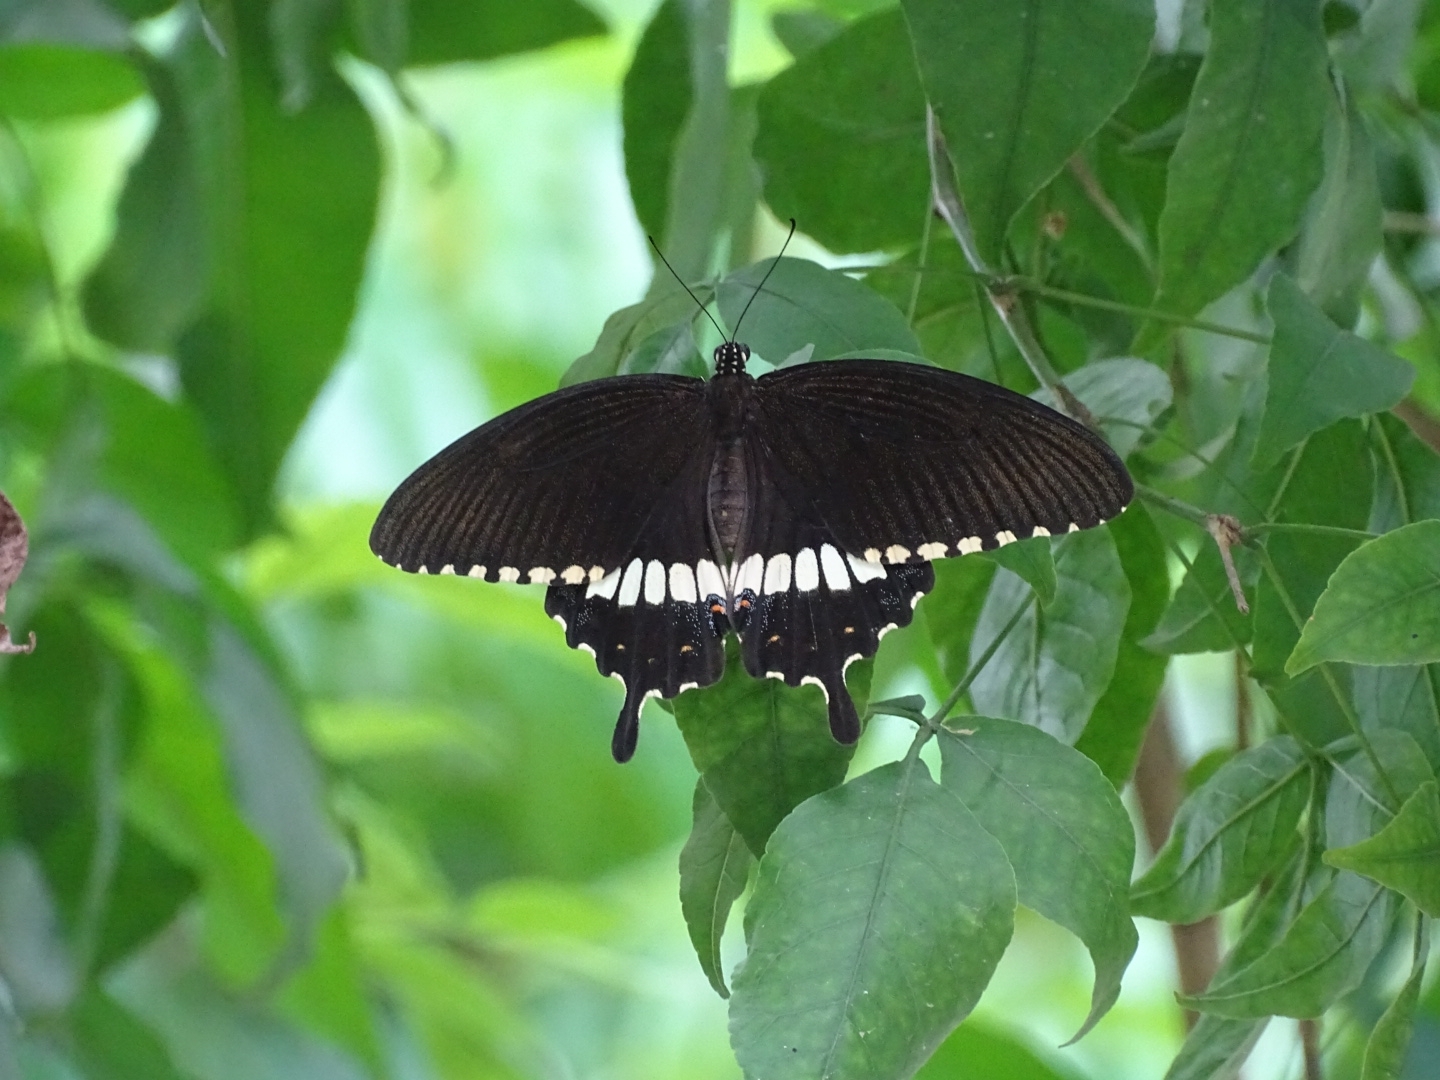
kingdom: Animalia
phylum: Arthropoda
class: Insecta
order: Lepidoptera
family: Papilionidae
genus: Papilio
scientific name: Papilio polytes
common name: Common mormon
